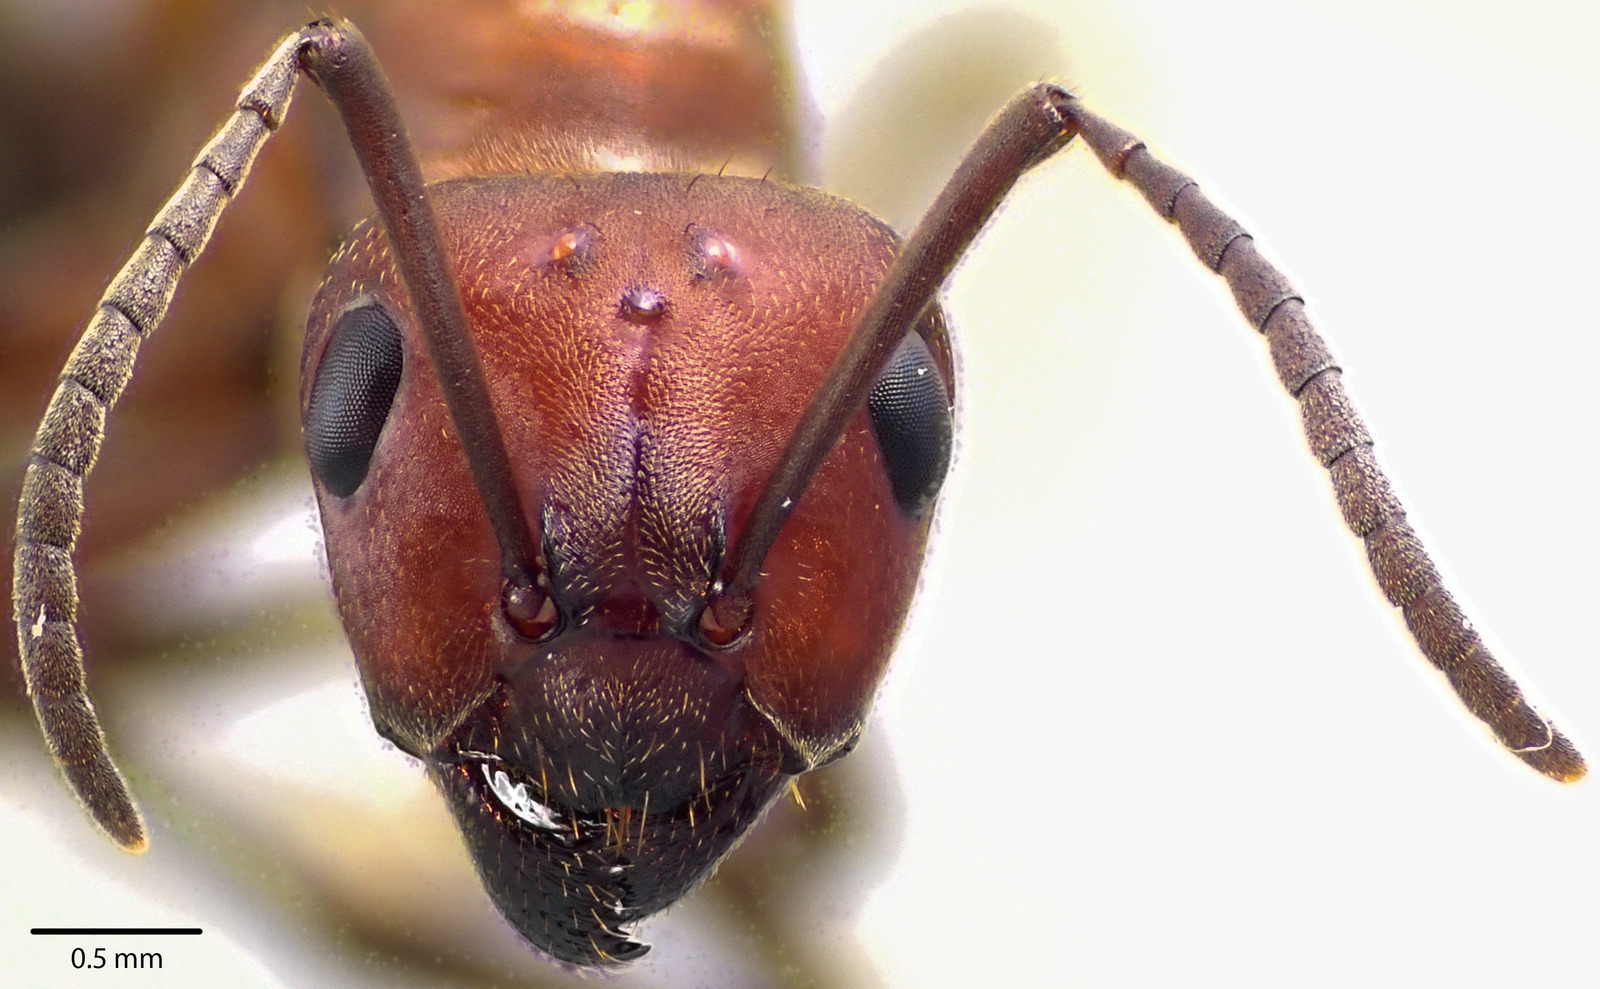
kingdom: Animalia
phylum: Arthropoda
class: Insecta
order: Hymenoptera
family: Formicidae
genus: Formica
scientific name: Formica subintegra
